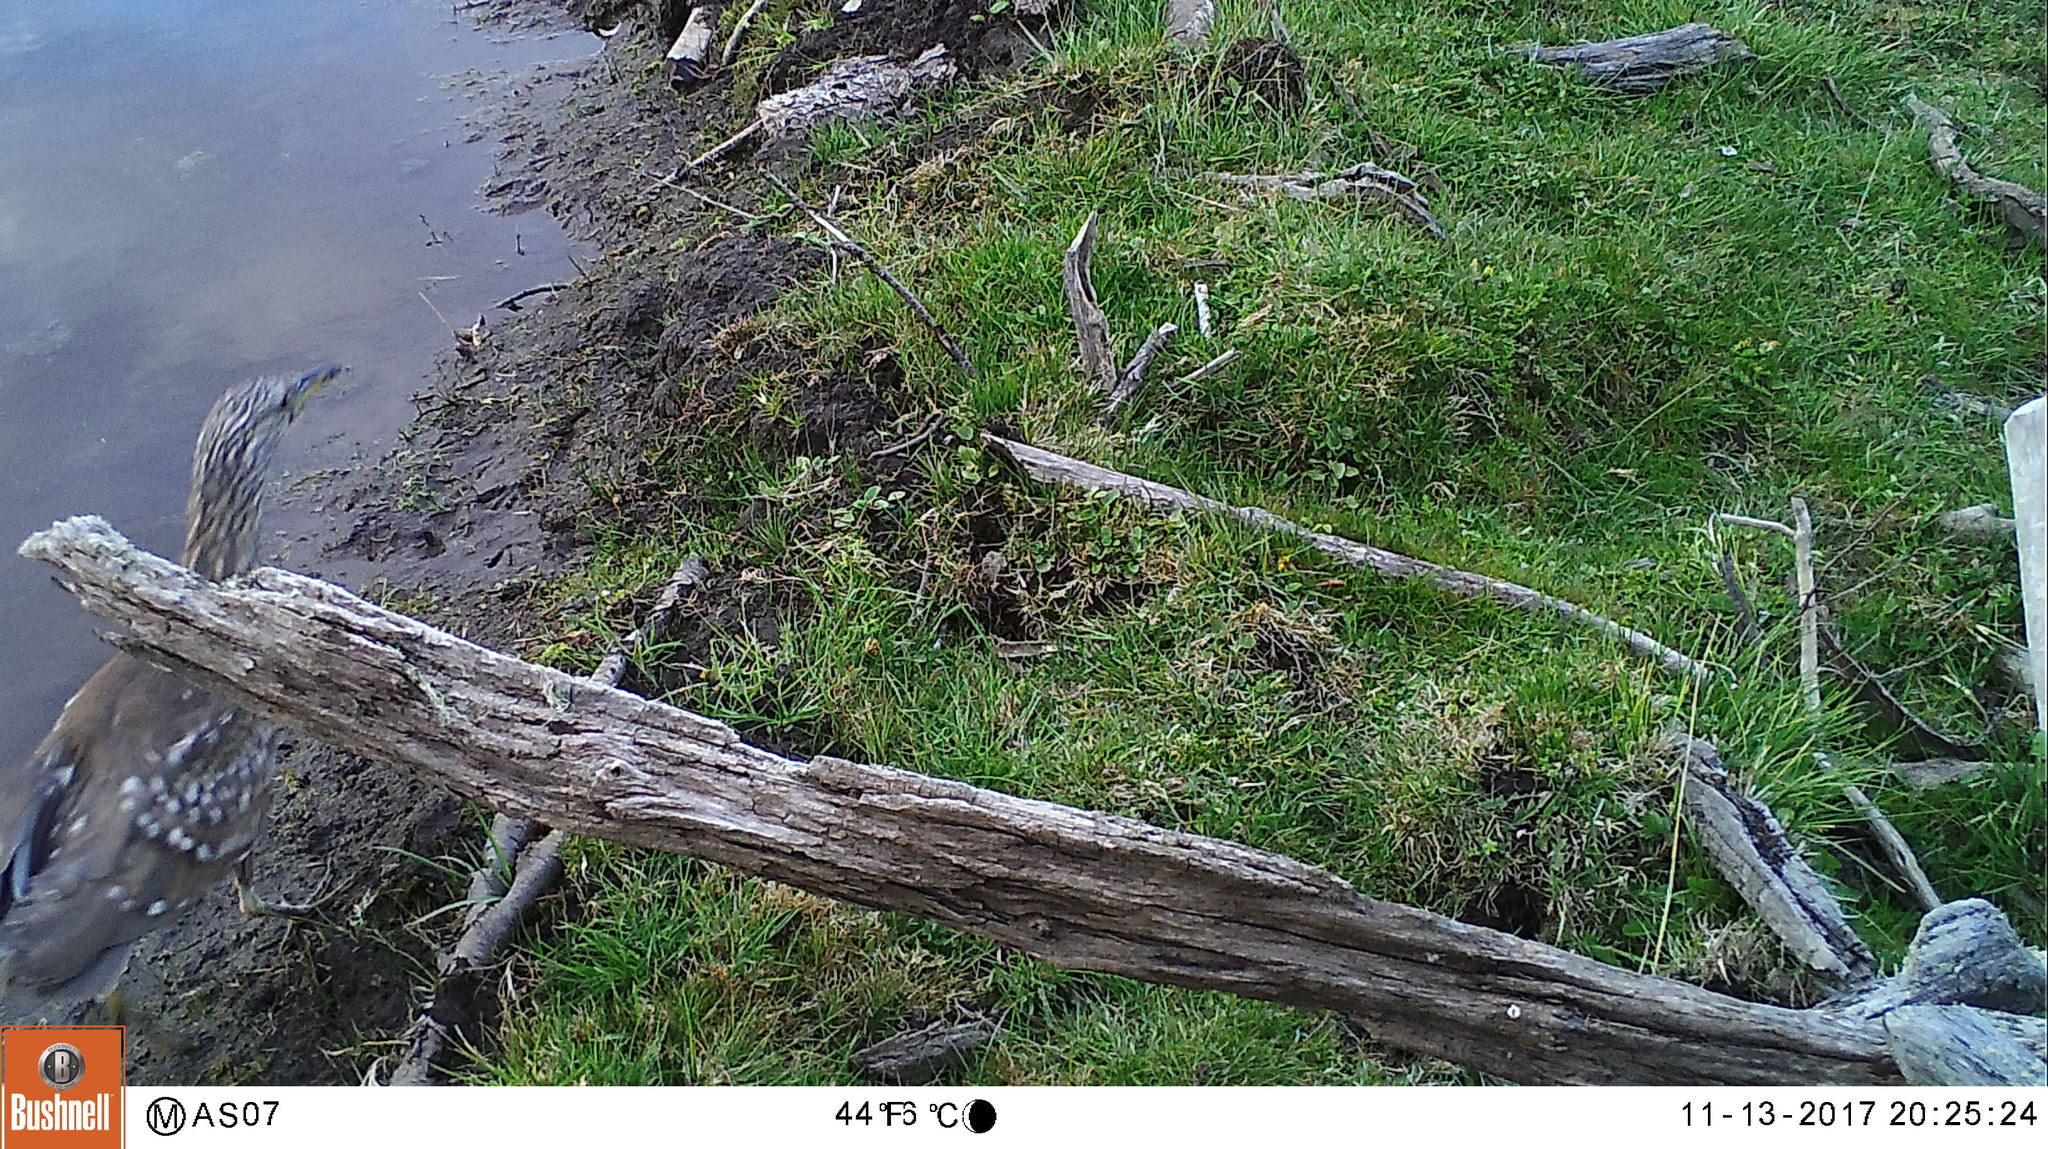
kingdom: Animalia
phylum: Chordata
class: Aves
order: Pelecaniformes
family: Ardeidae
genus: Nycticorax
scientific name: Nycticorax nycticorax
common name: Black-crowned night heron
